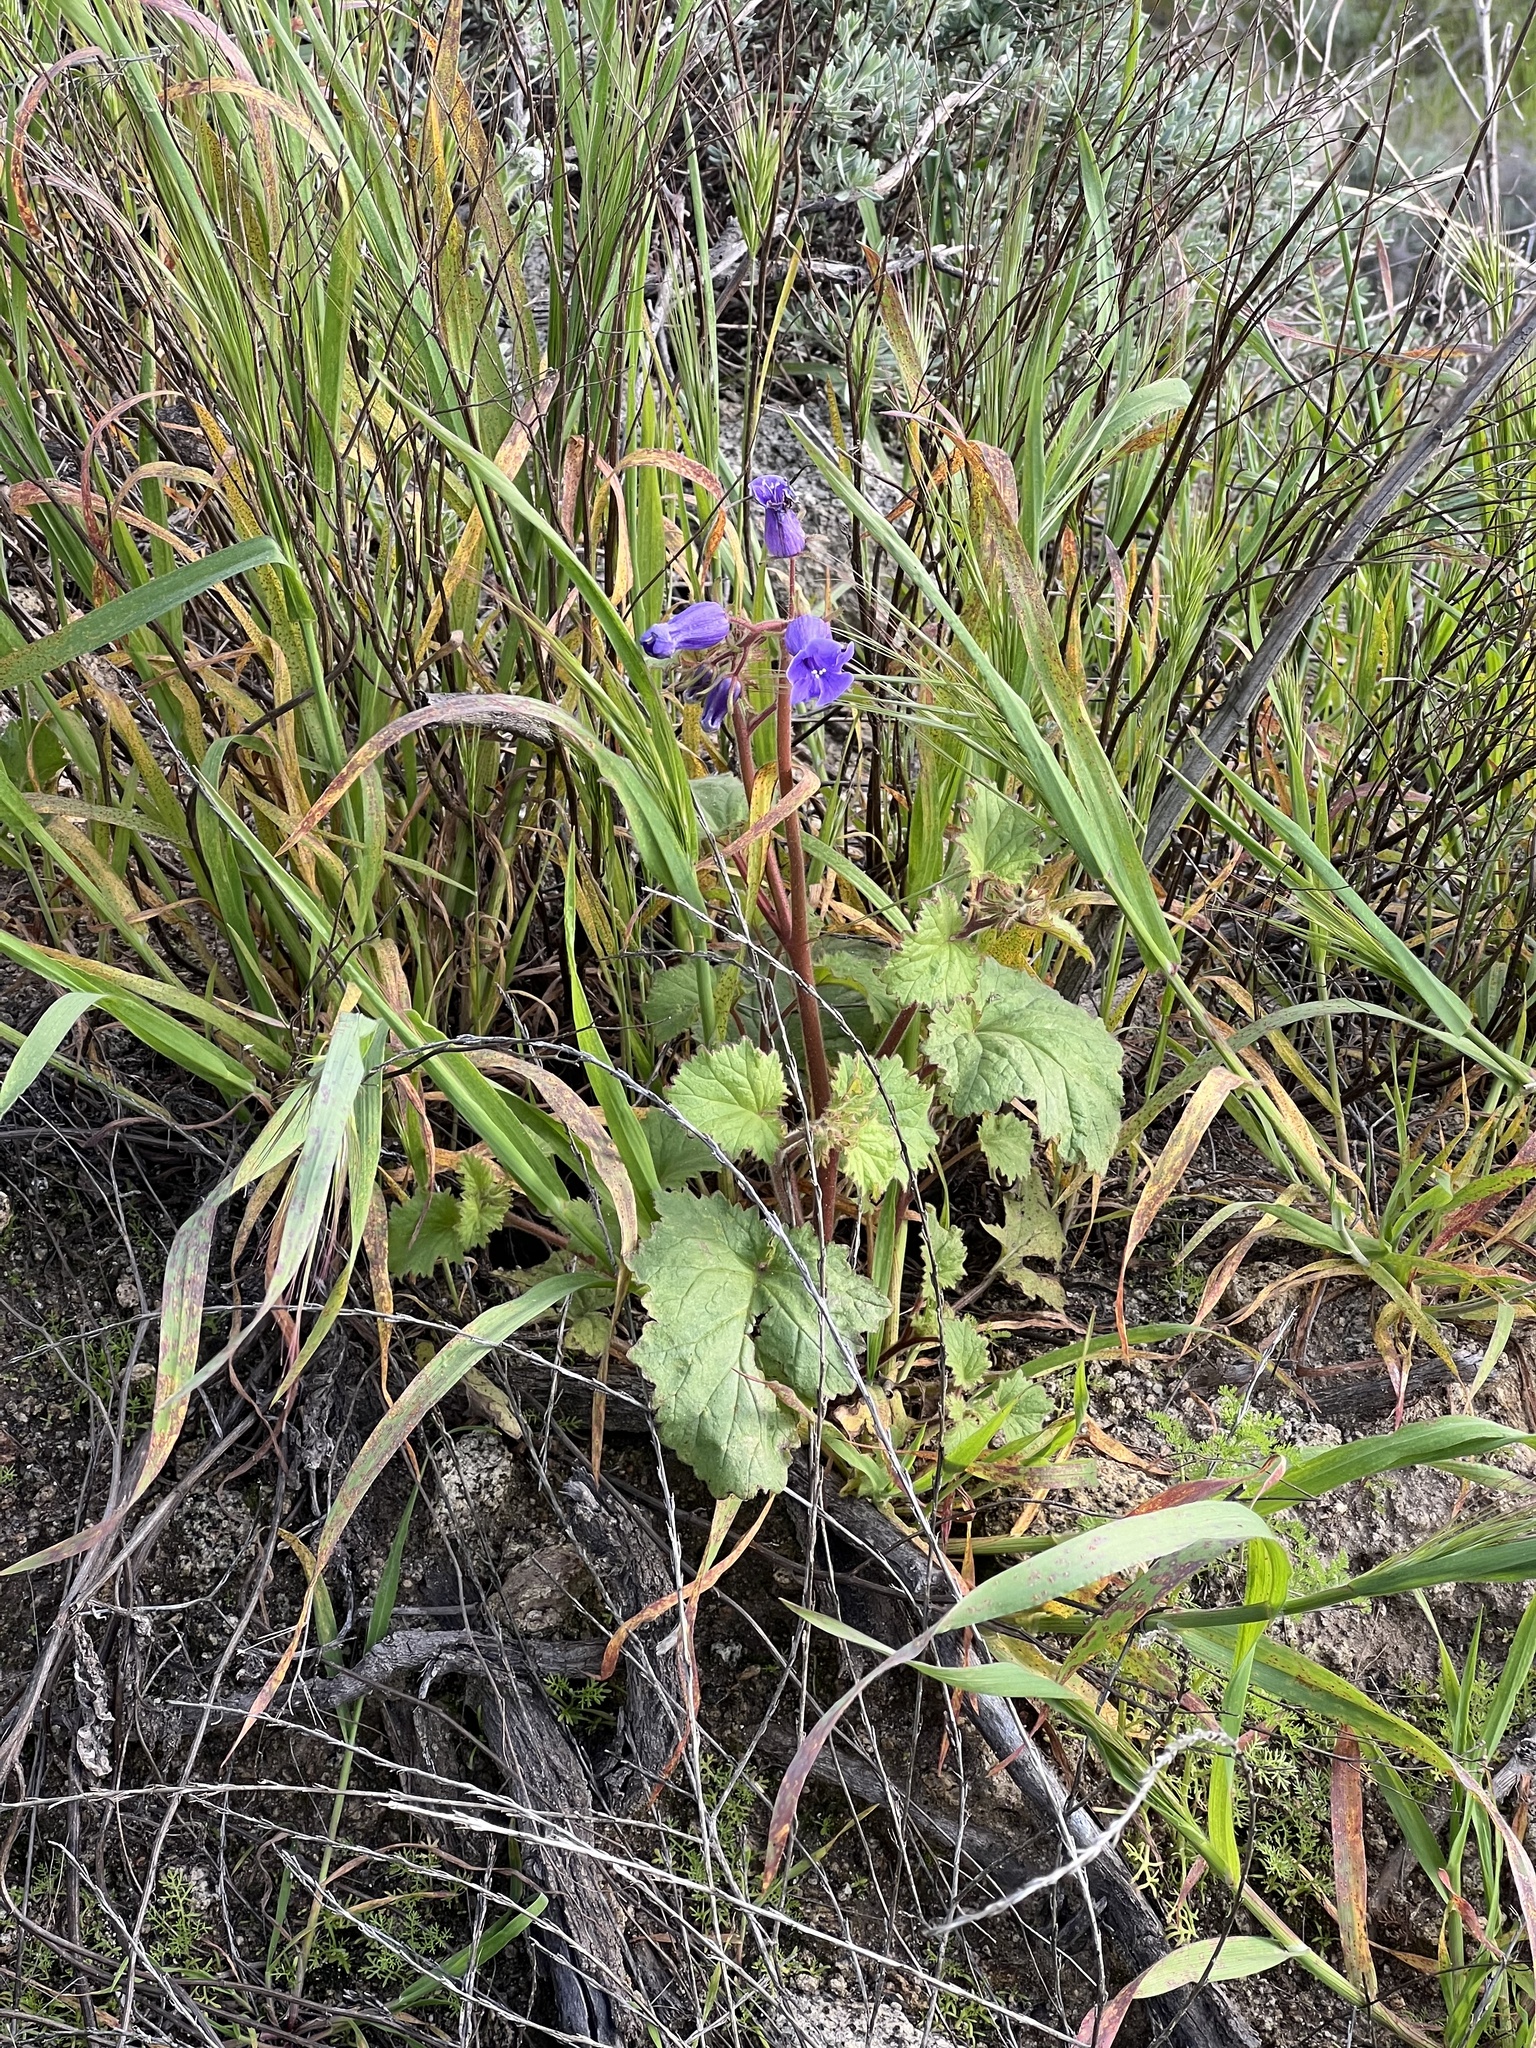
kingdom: Plantae
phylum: Tracheophyta
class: Magnoliopsida
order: Boraginales
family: Hydrophyllaceae
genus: Phacelia
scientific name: Phacelia minor
